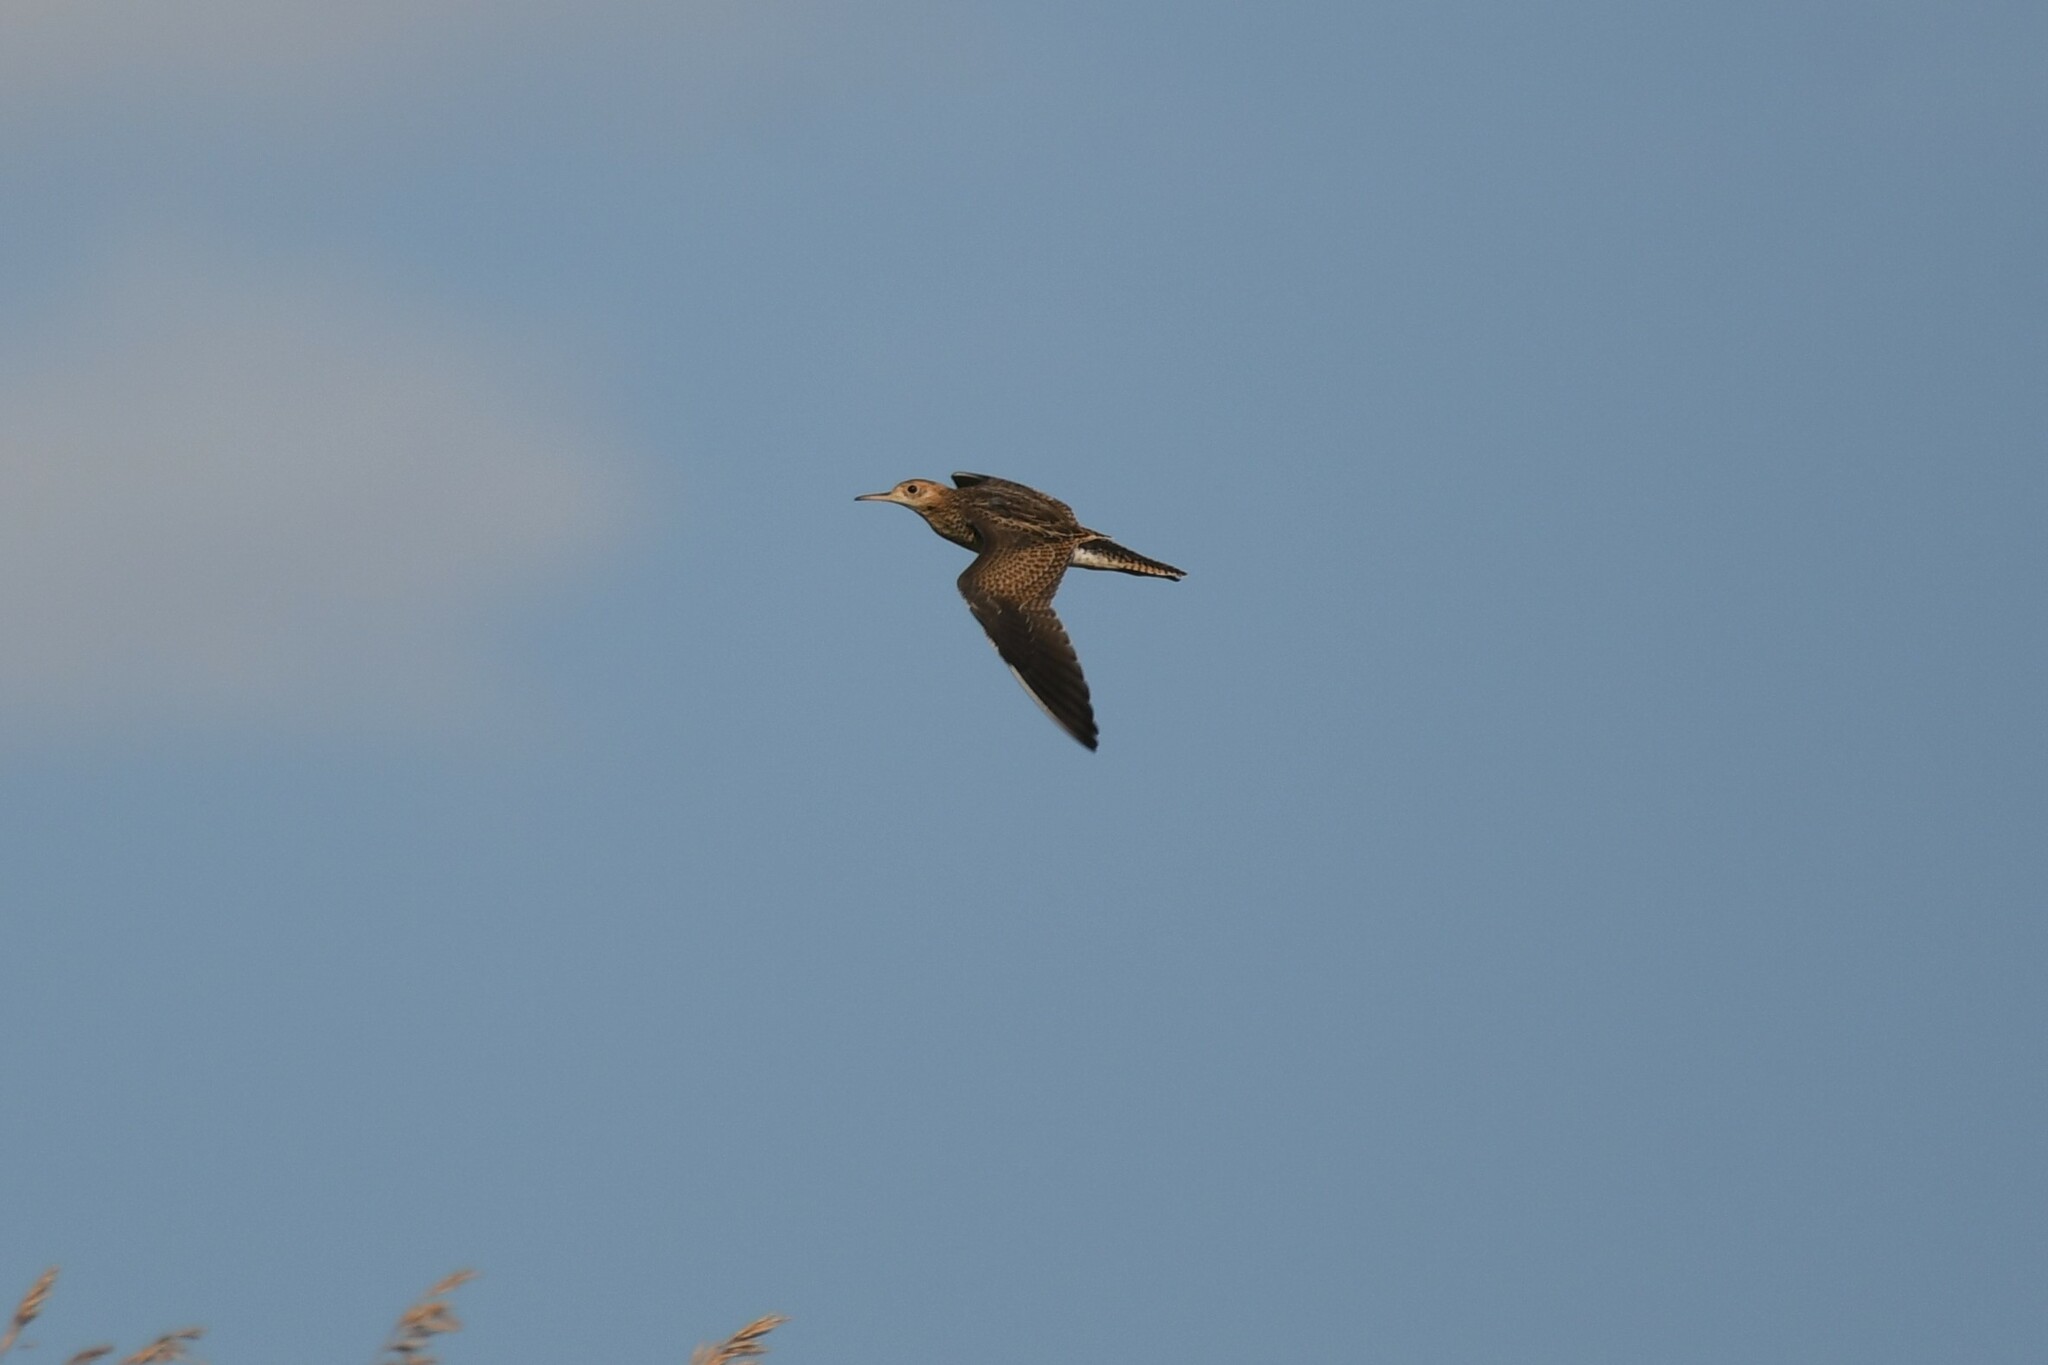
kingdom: Animalia
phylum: Chordata
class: Aves
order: Charadriiformes
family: Scolopacidae
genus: Bartramia
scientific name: Bartramia longicauda
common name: Upland sandpiper
